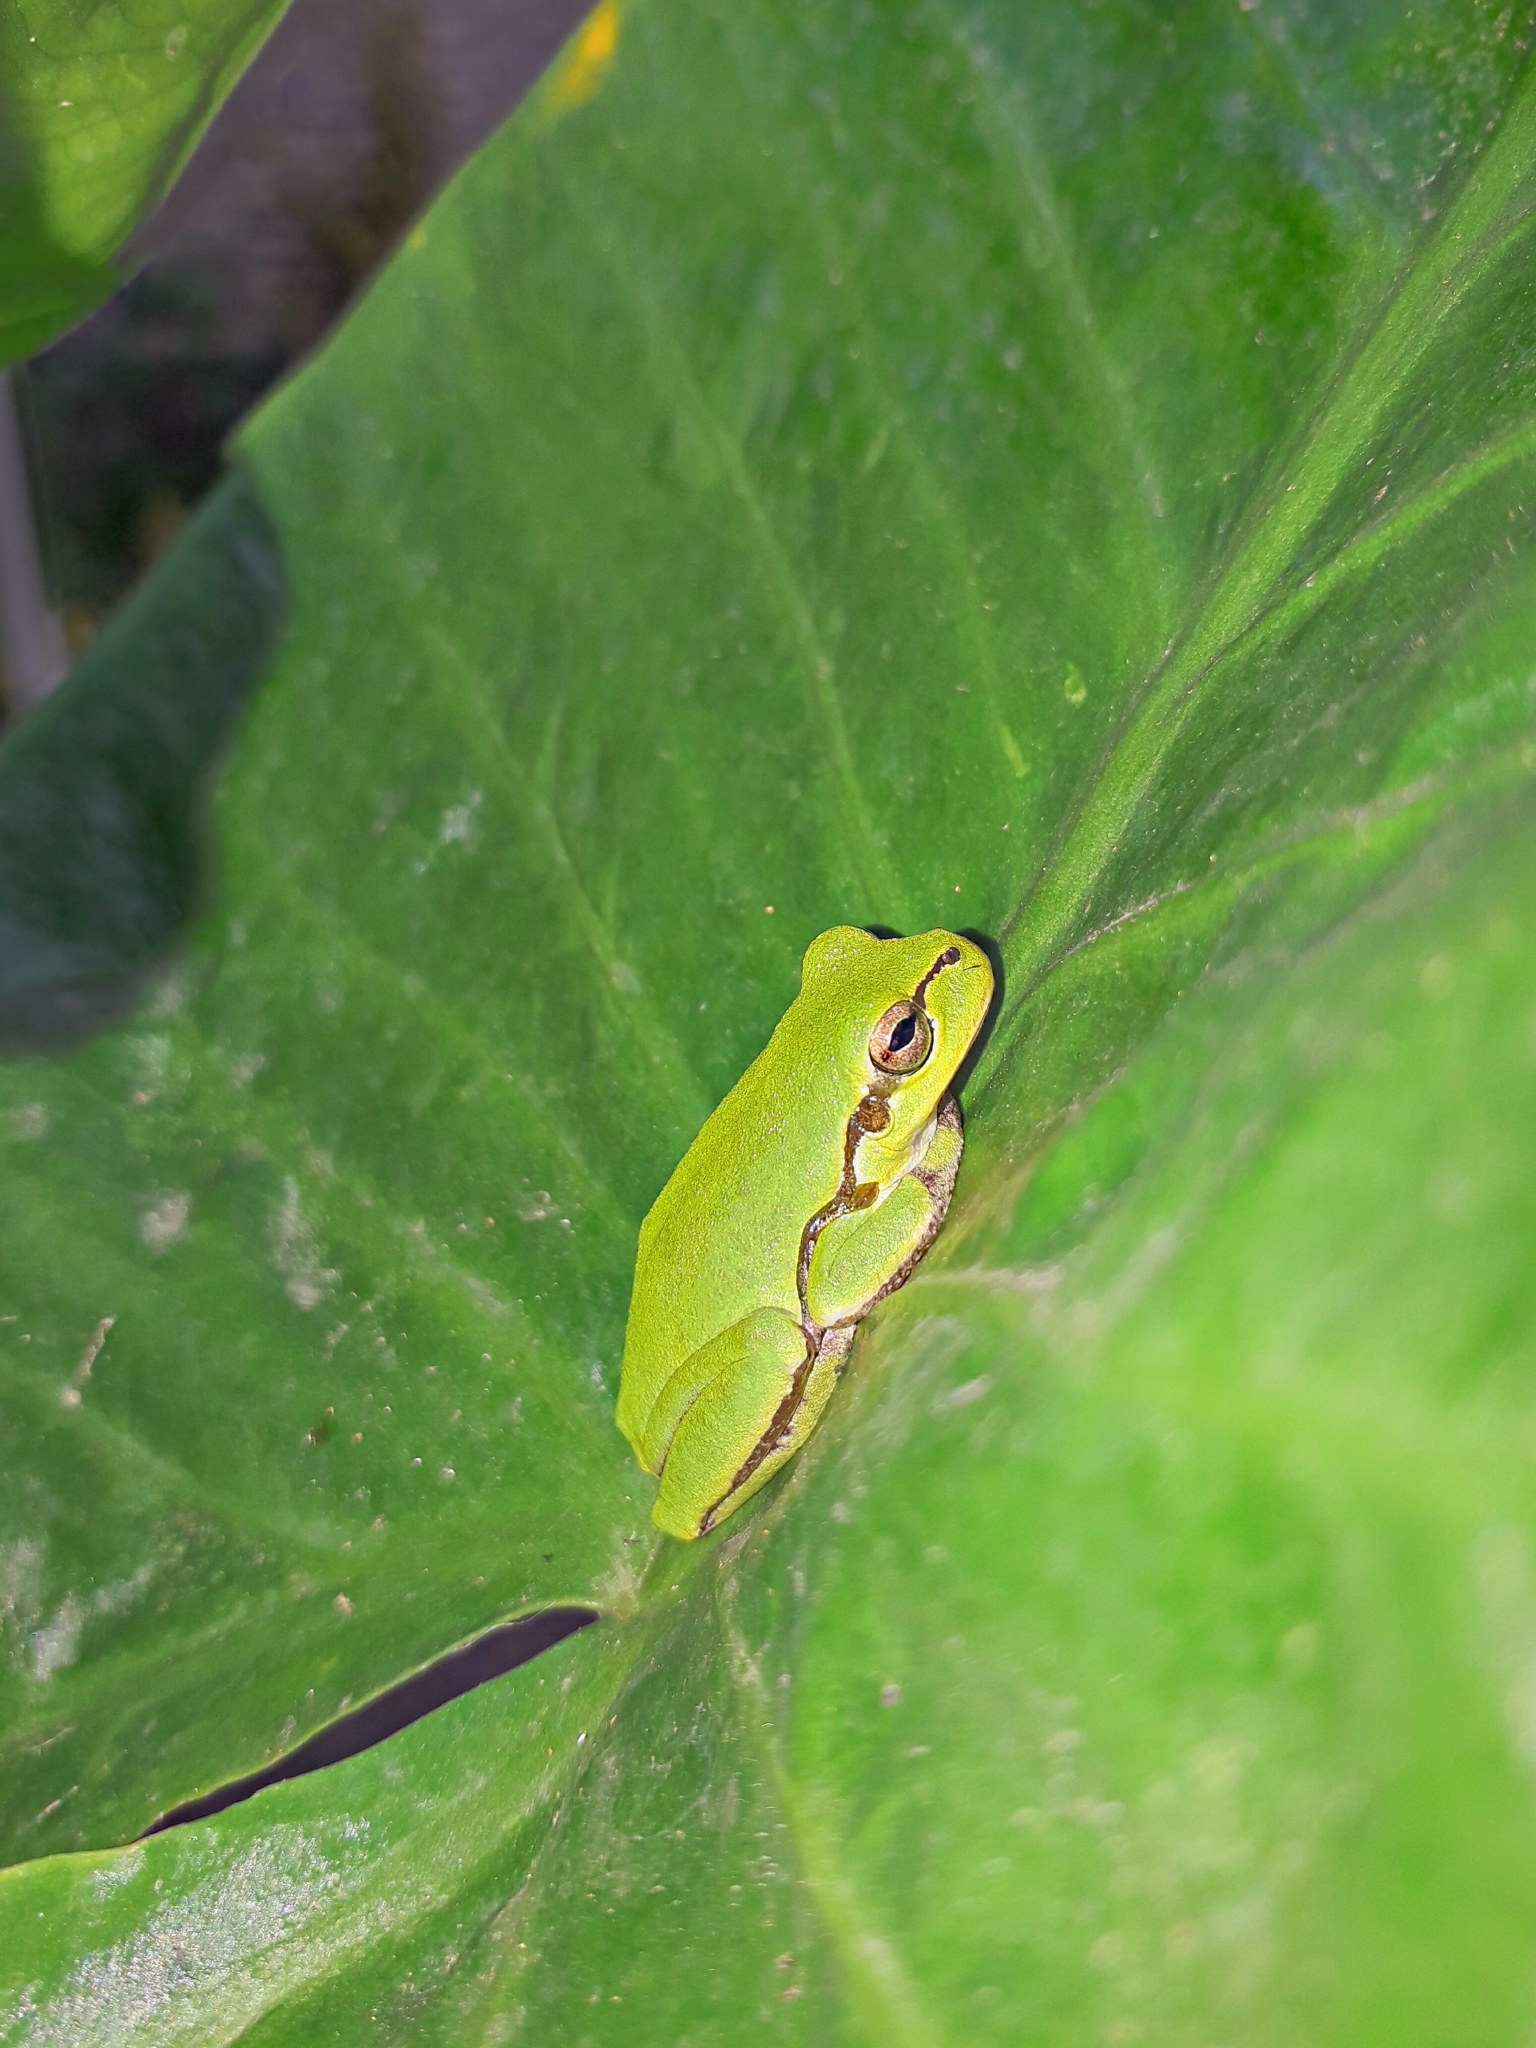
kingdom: Animalia
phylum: Chordata
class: Amphibia
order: Anura
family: Hylidae
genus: Hyla
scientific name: Hyla orientalis
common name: Caucasian treefrog
